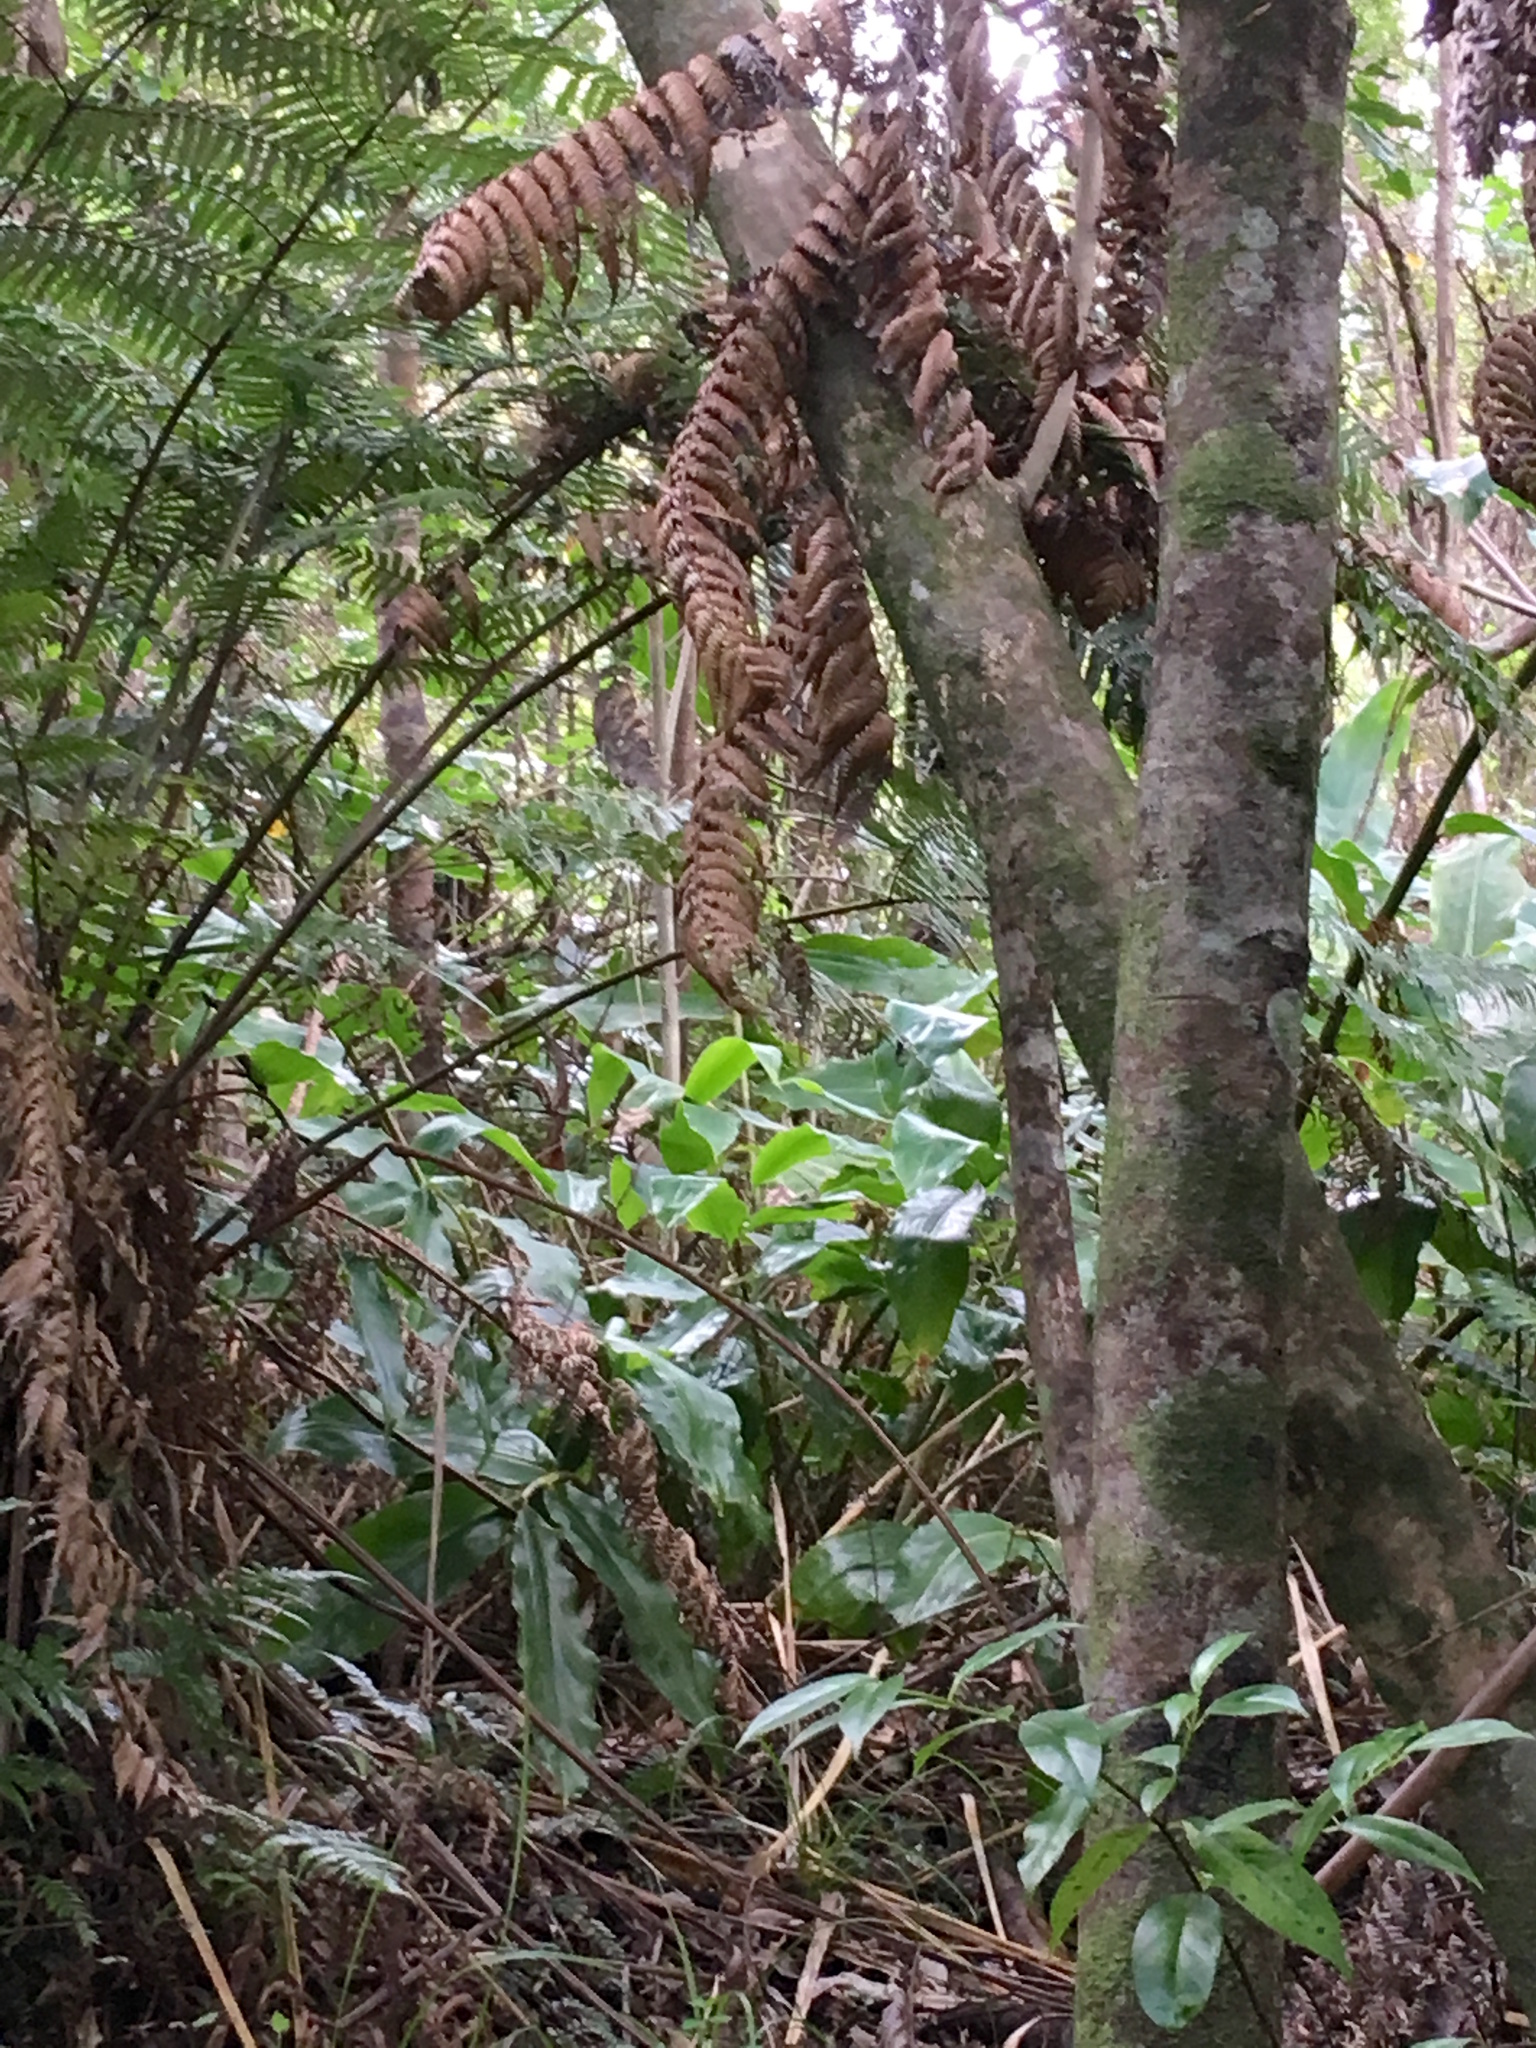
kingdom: Plantae
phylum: Tracheophyta
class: Liliopsida
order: Zingiberales
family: Zingiberaceae
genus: Hedychium
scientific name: Hedychium gardnerianum
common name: Himalayan ginger
